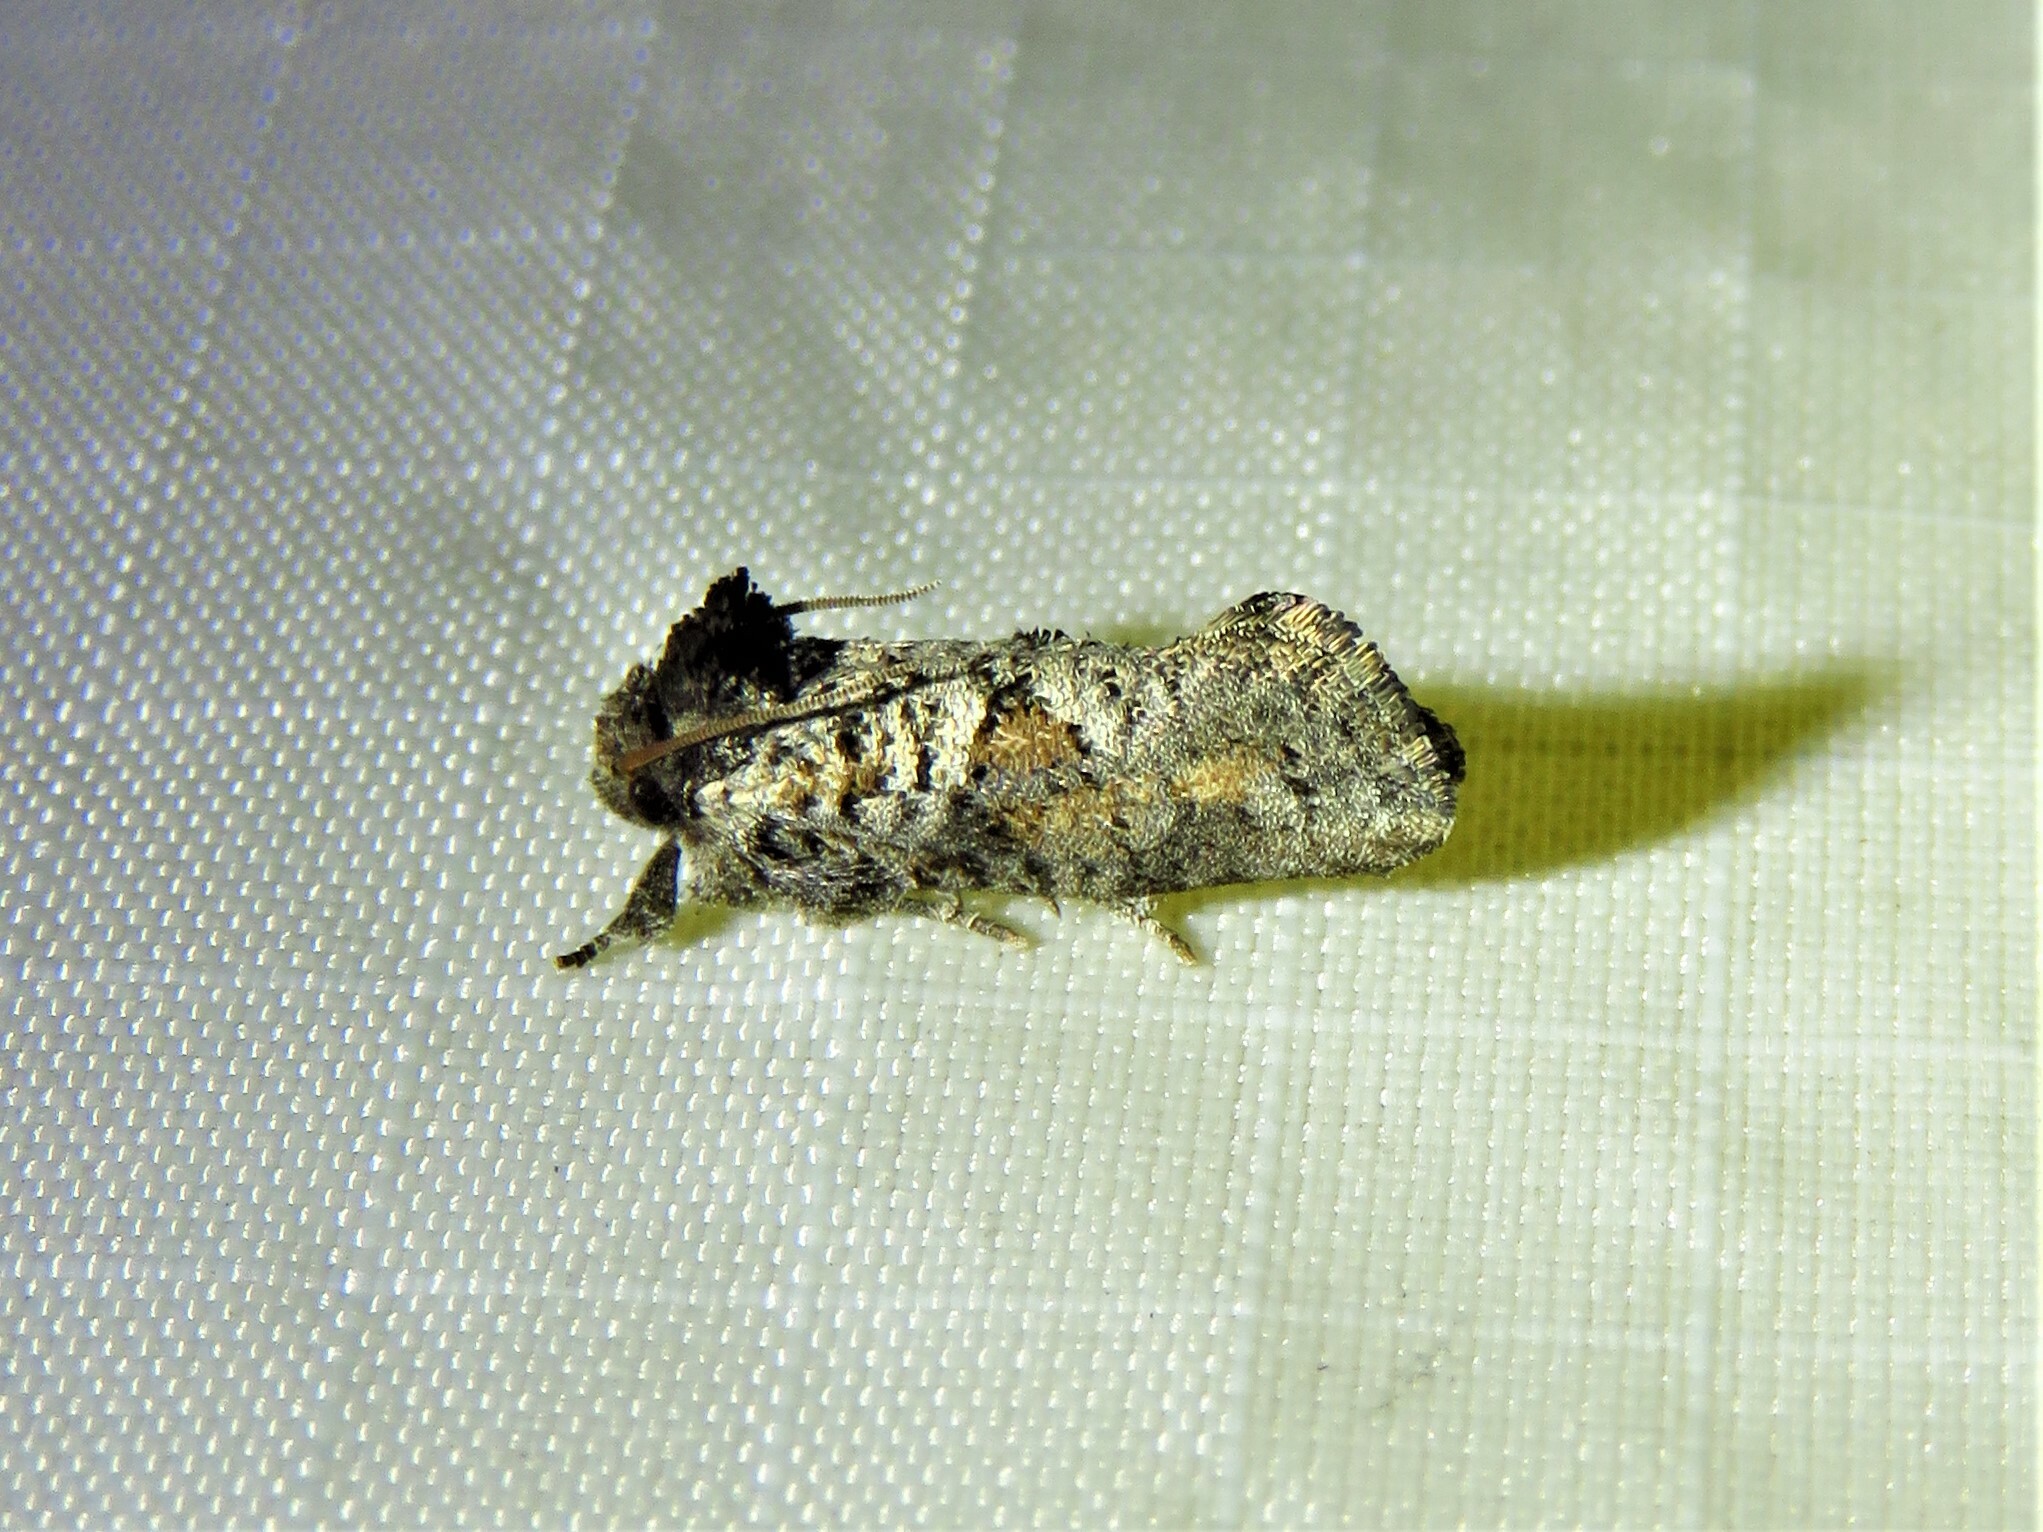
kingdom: Animalia
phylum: Arthropoda
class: Insecta
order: Lepidoptera
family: Tineidae
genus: Acrolophus
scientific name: Acrolophus piger
